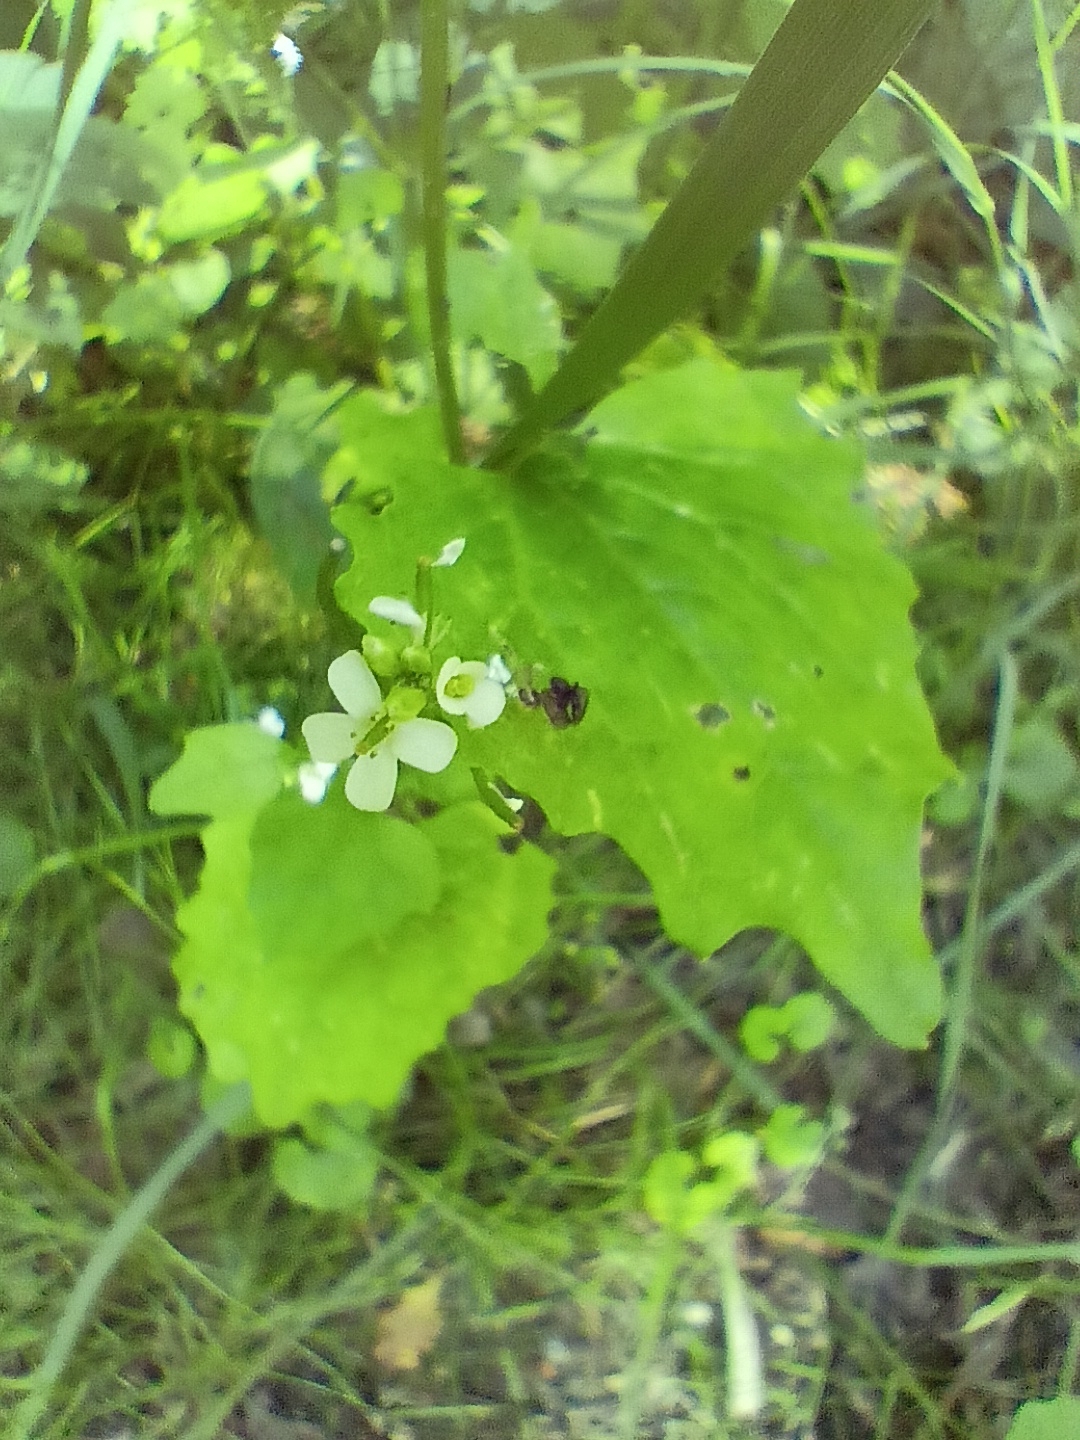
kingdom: Plantae
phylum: Tracheophyta
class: Magnoliopsida
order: Brassicales
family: Brassicaceae
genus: Alliaria
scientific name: Alliaria petiolata
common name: Garlic mustard
